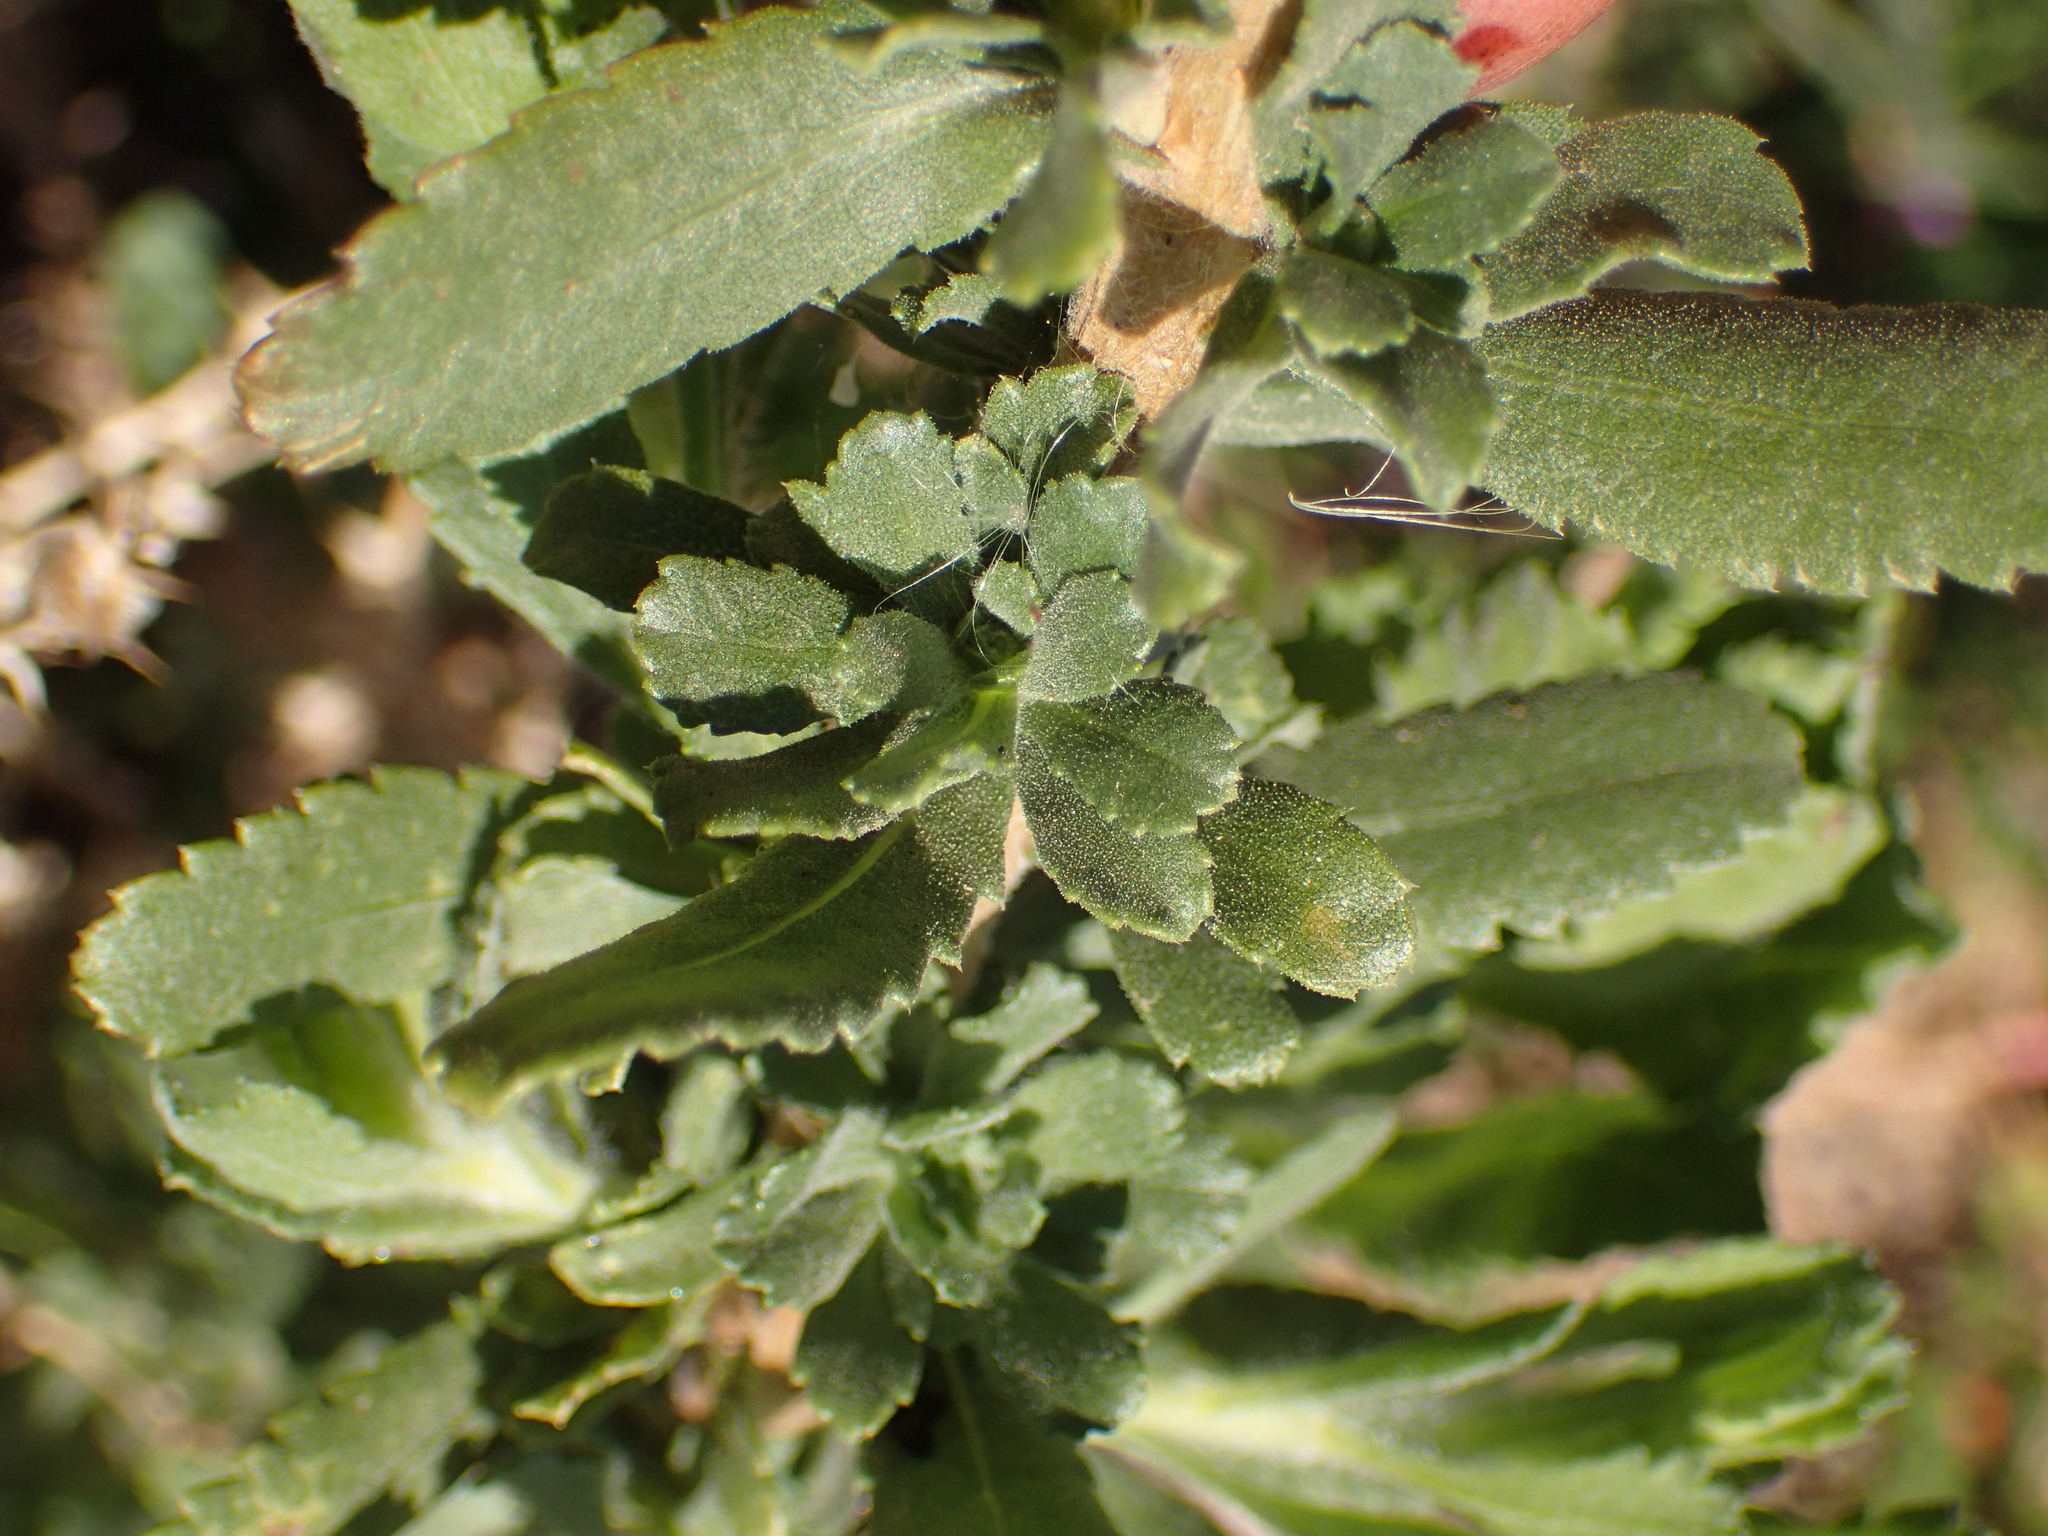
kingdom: Plantae
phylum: Tracheophyta
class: Magnoliopsida
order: Asterales
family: Asteraceae
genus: Isocoma
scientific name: Isocoma menziesii
